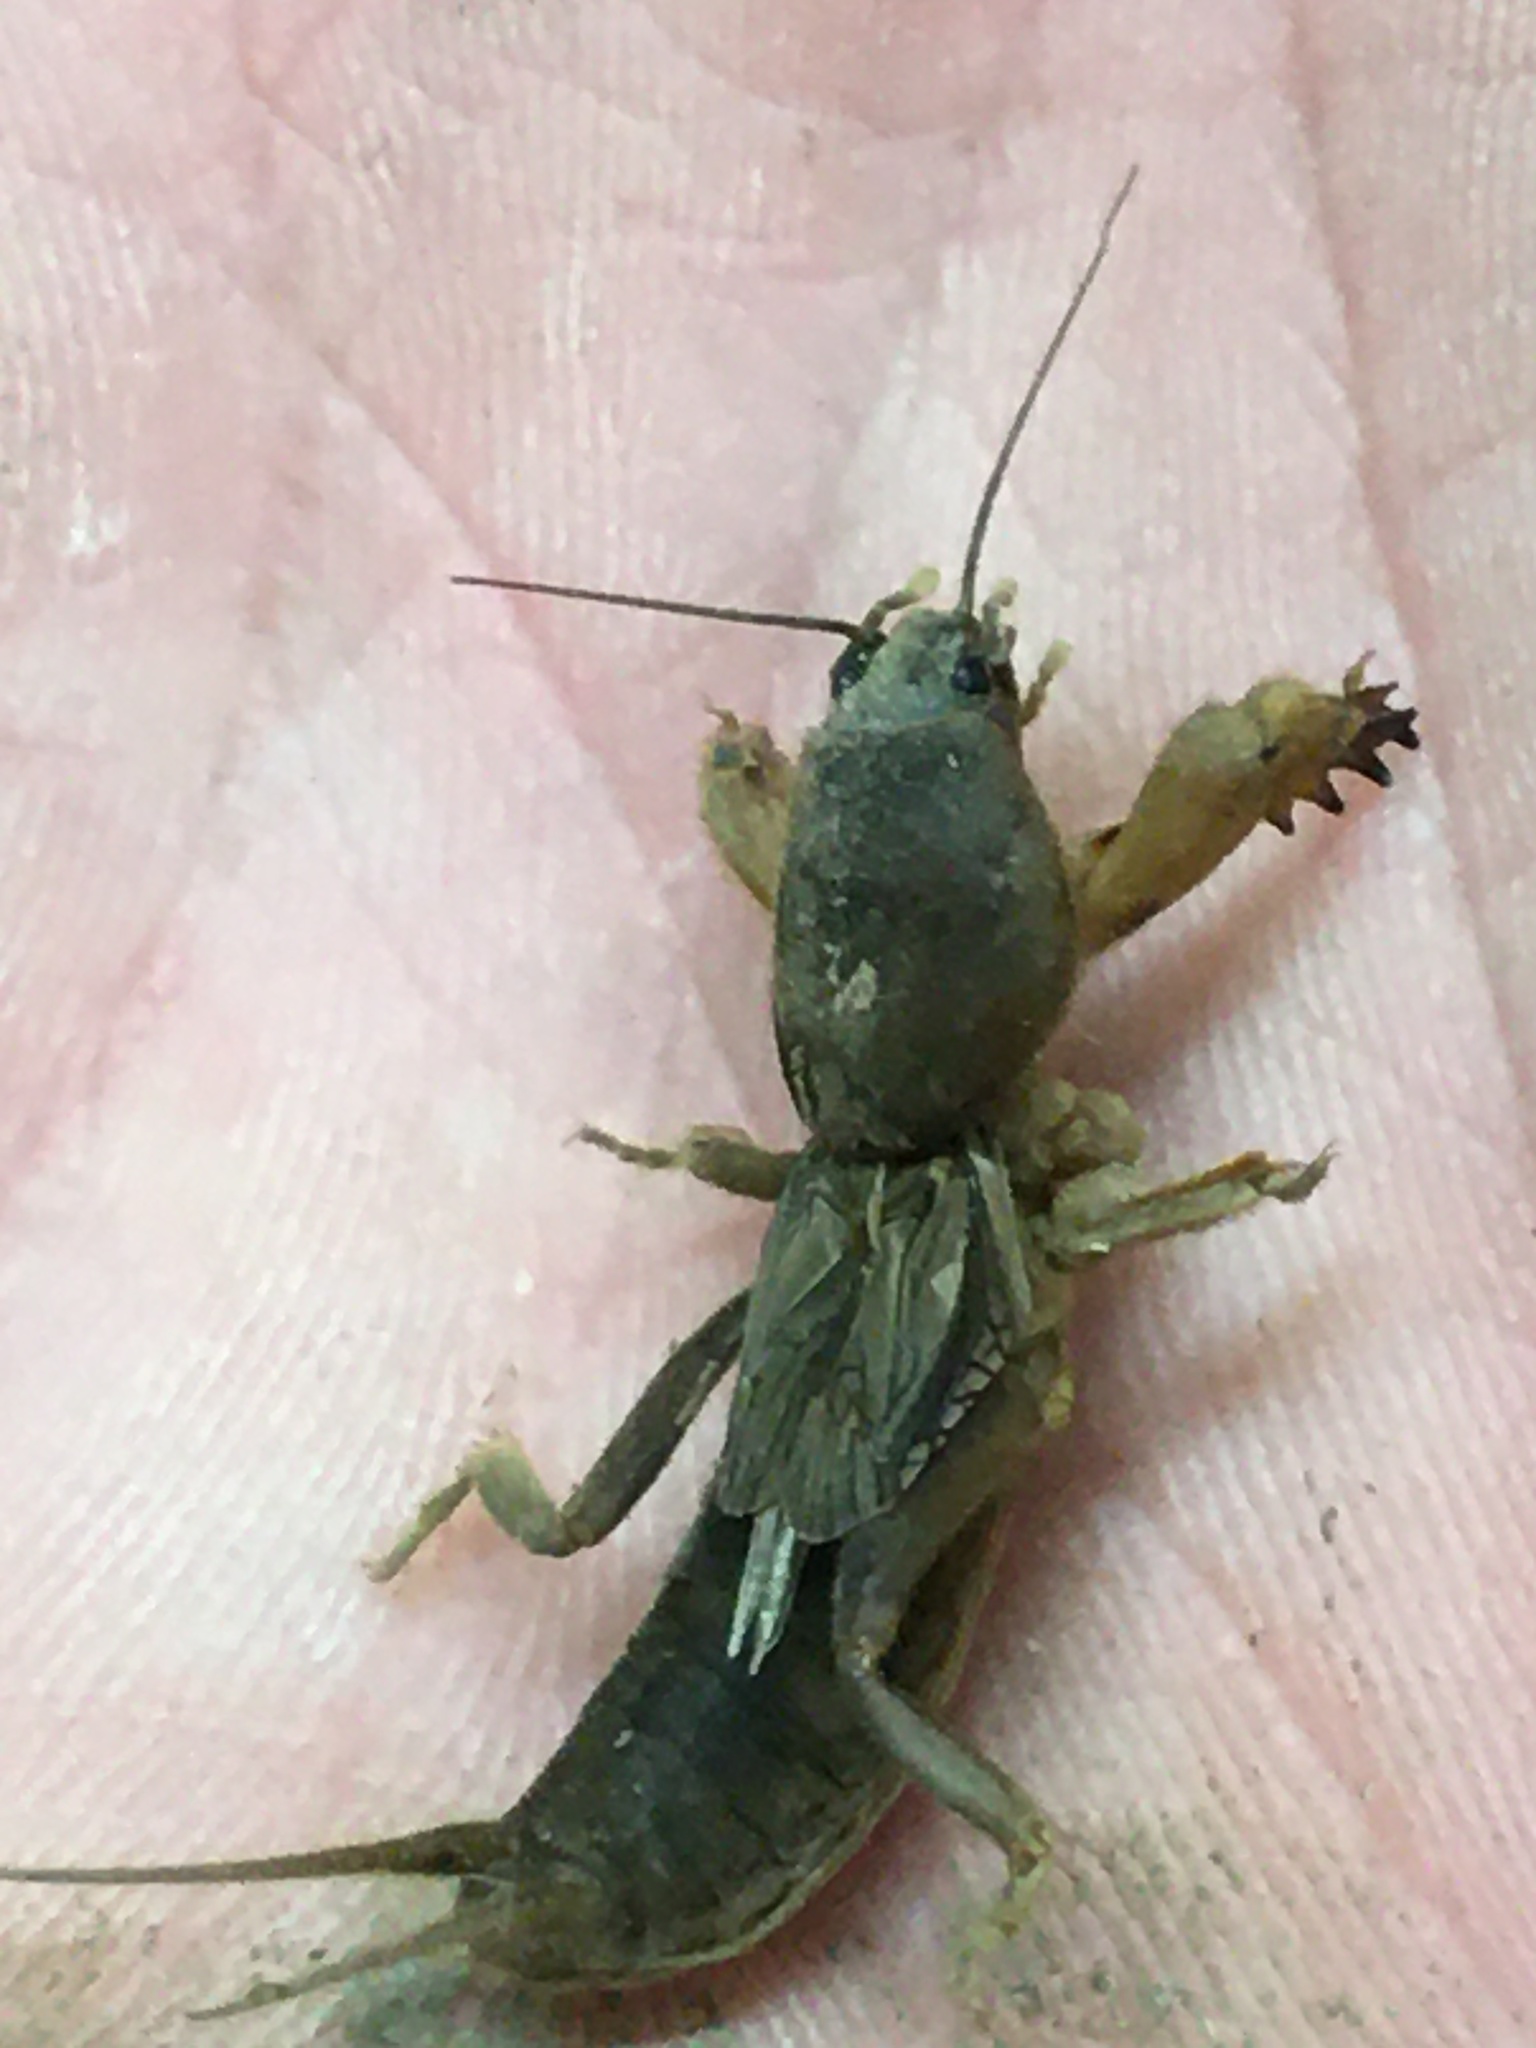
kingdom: Animalia
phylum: Arthropoda
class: Insecta
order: Orthoptera
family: Gryllotalpidae
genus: Neocurtilla
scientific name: Neocurtilla hexadactyla
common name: Northern mole cricket
